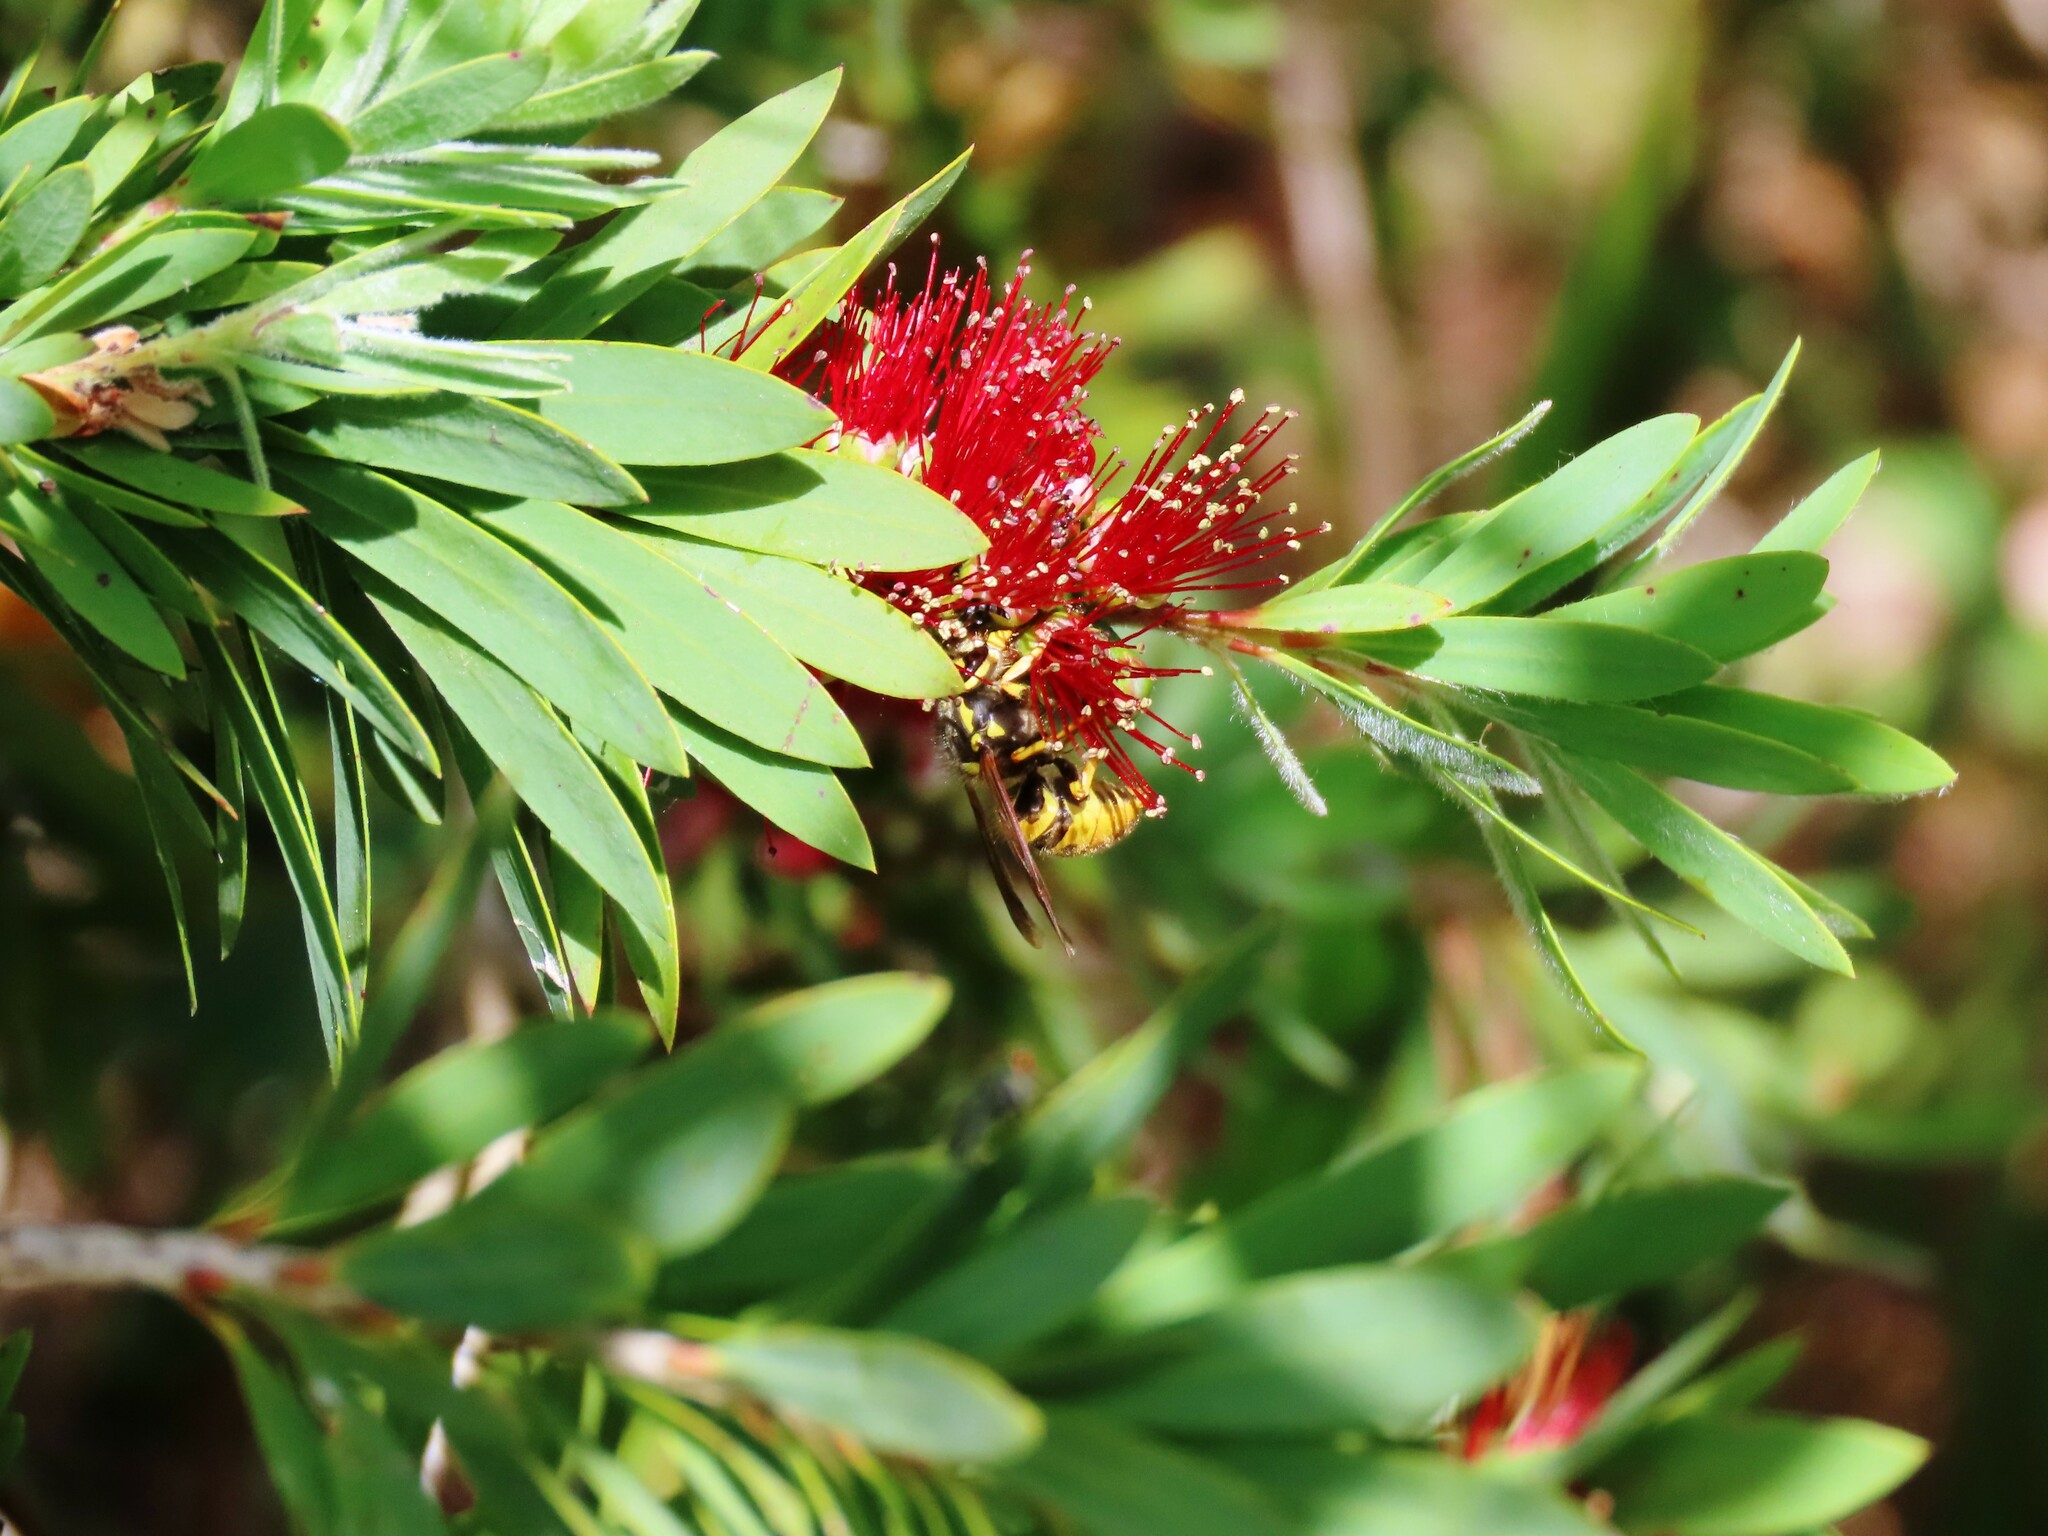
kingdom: Animalia
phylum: Arthropoda
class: Insecta
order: Hymenoptera
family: Vespidae
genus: Vespula
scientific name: Vespula germanica
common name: German wasp
